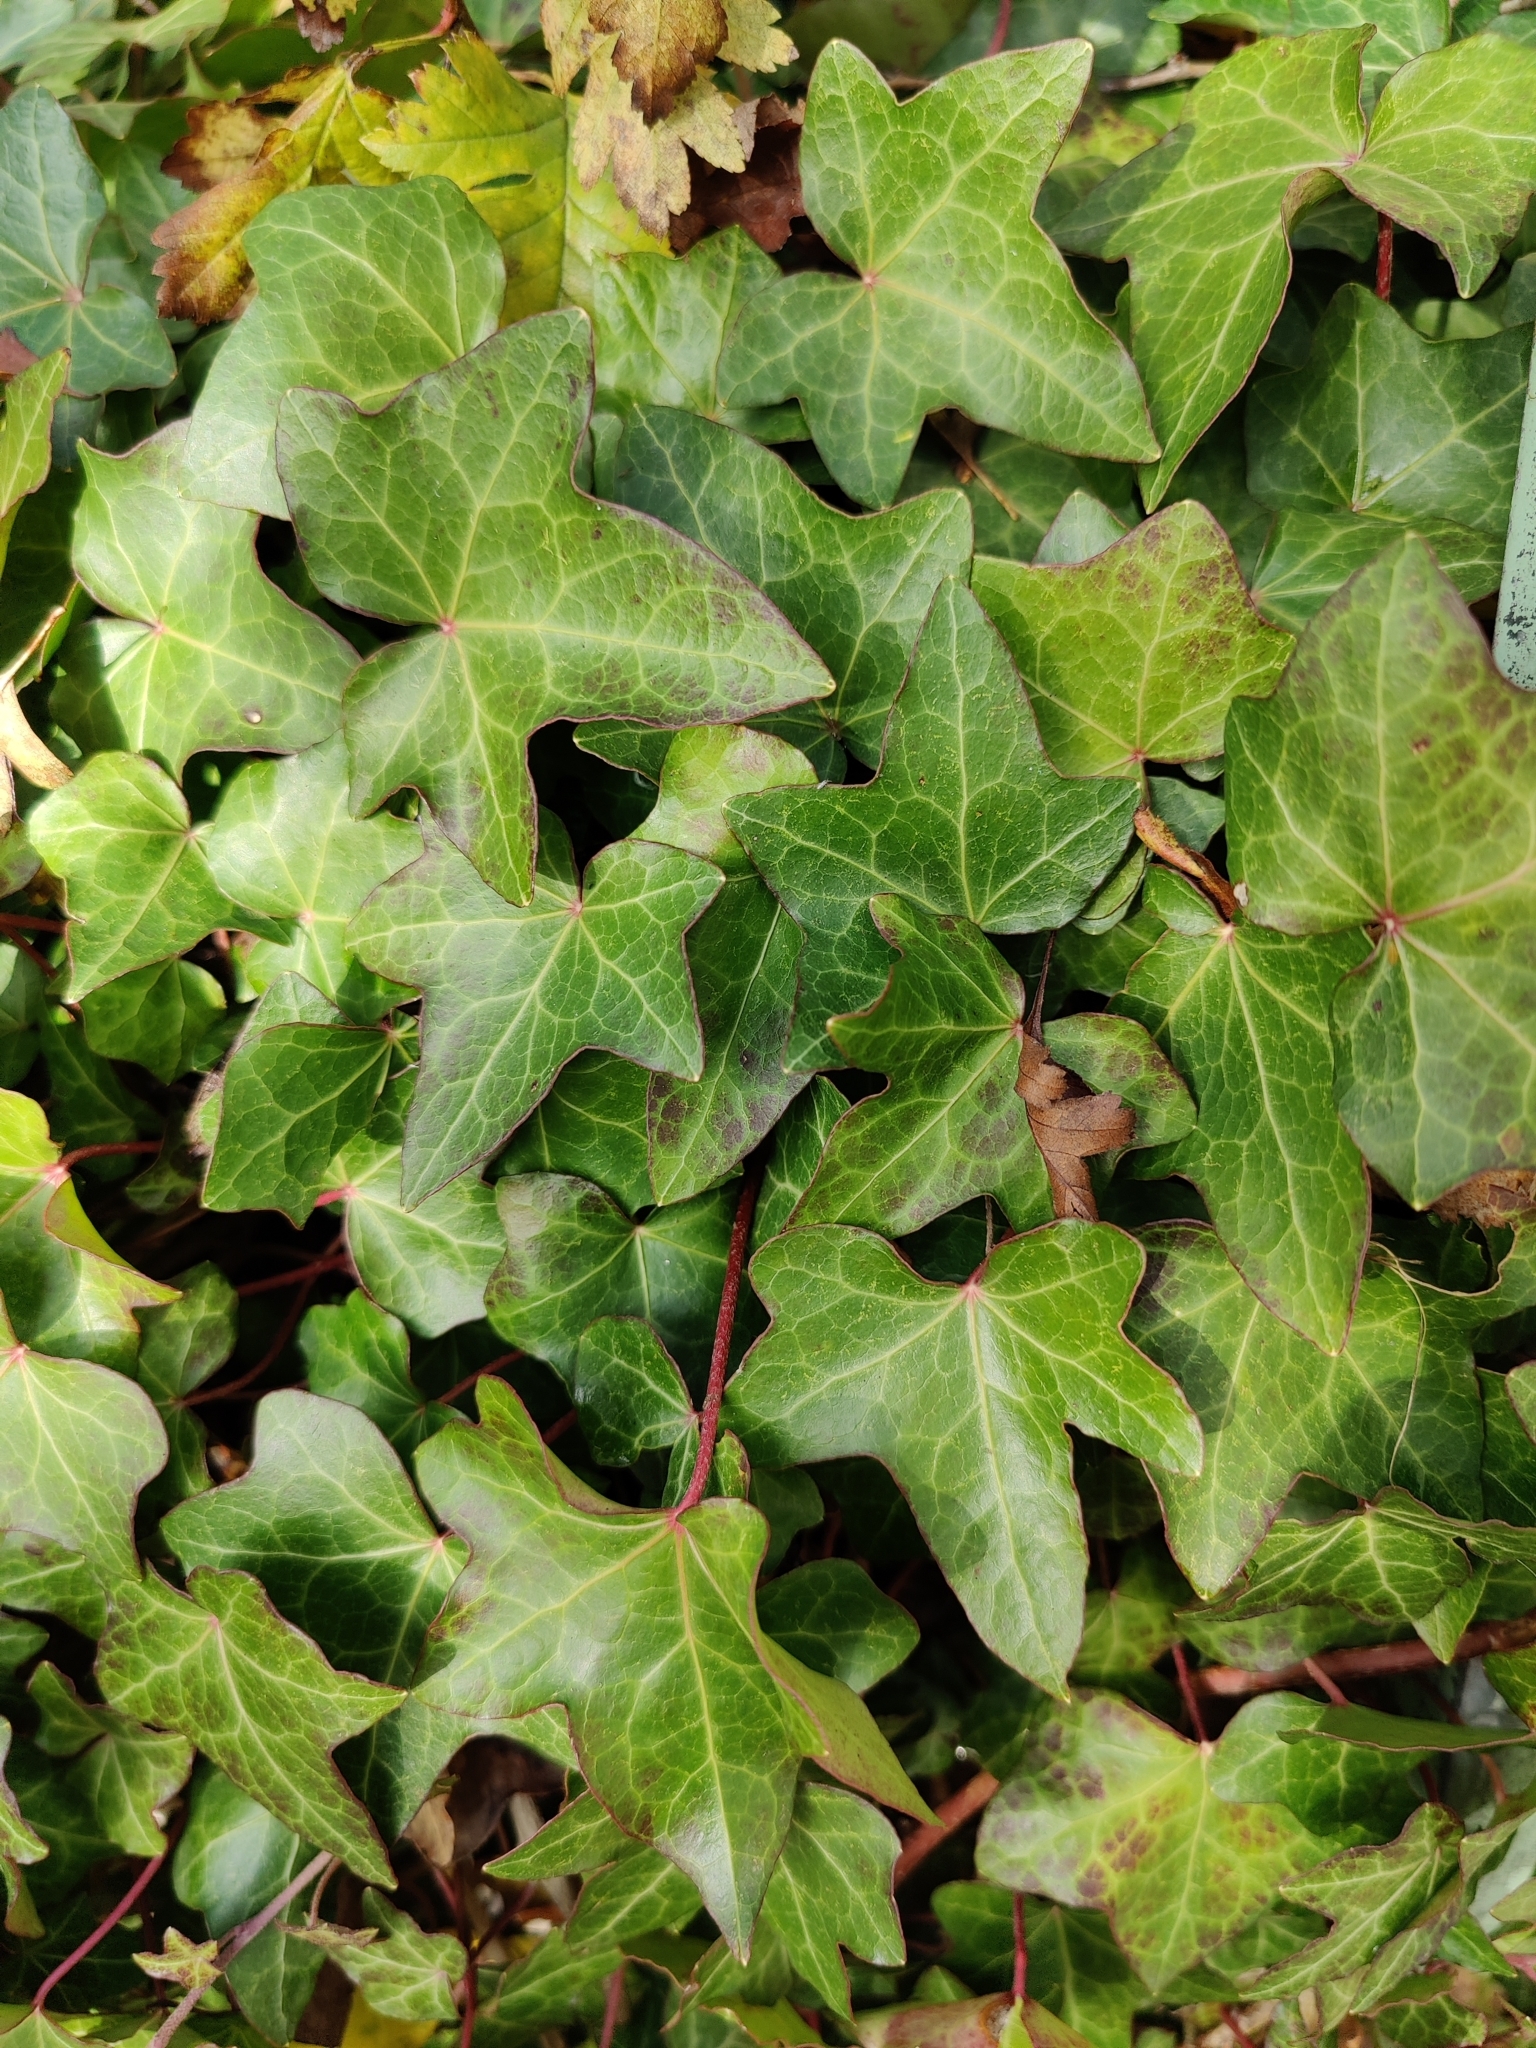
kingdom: Plantae
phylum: Tracheophyta
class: Magnoliopsida
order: Apiales
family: Araliaceae
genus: Hedera
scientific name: Hedera helix
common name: Ivy
